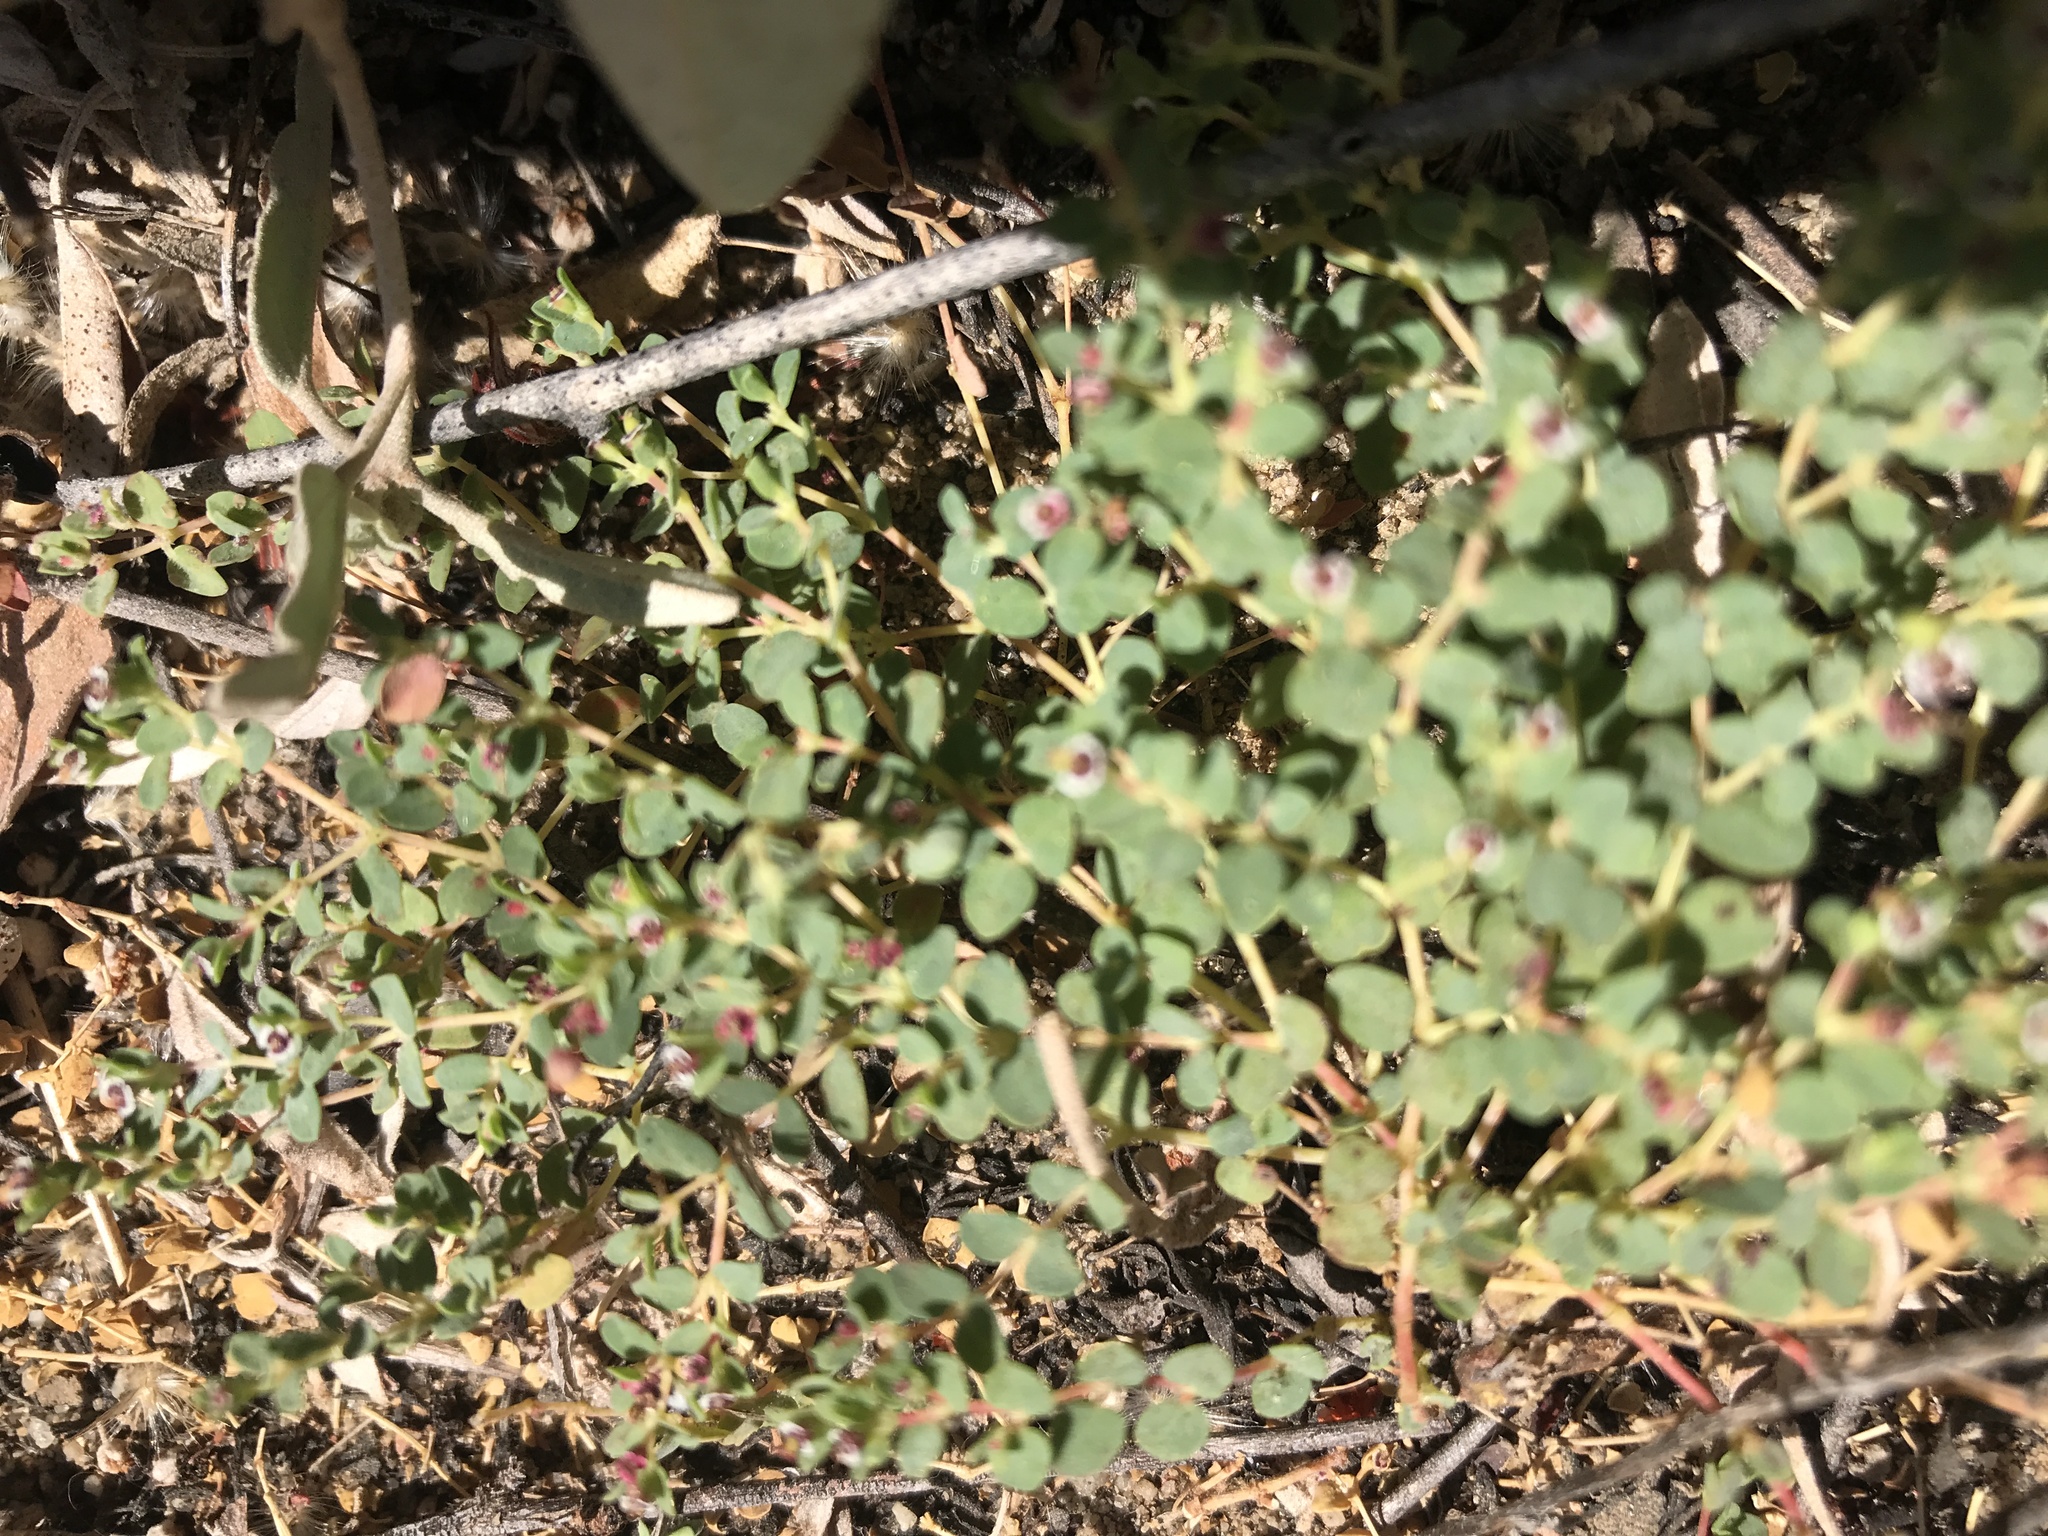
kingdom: Plantae
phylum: Tracheophyta
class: Magnoliopsida
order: Malpighiales
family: Euphorbiaceae
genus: Euphorbia
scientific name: Euphorbia polycarpa
